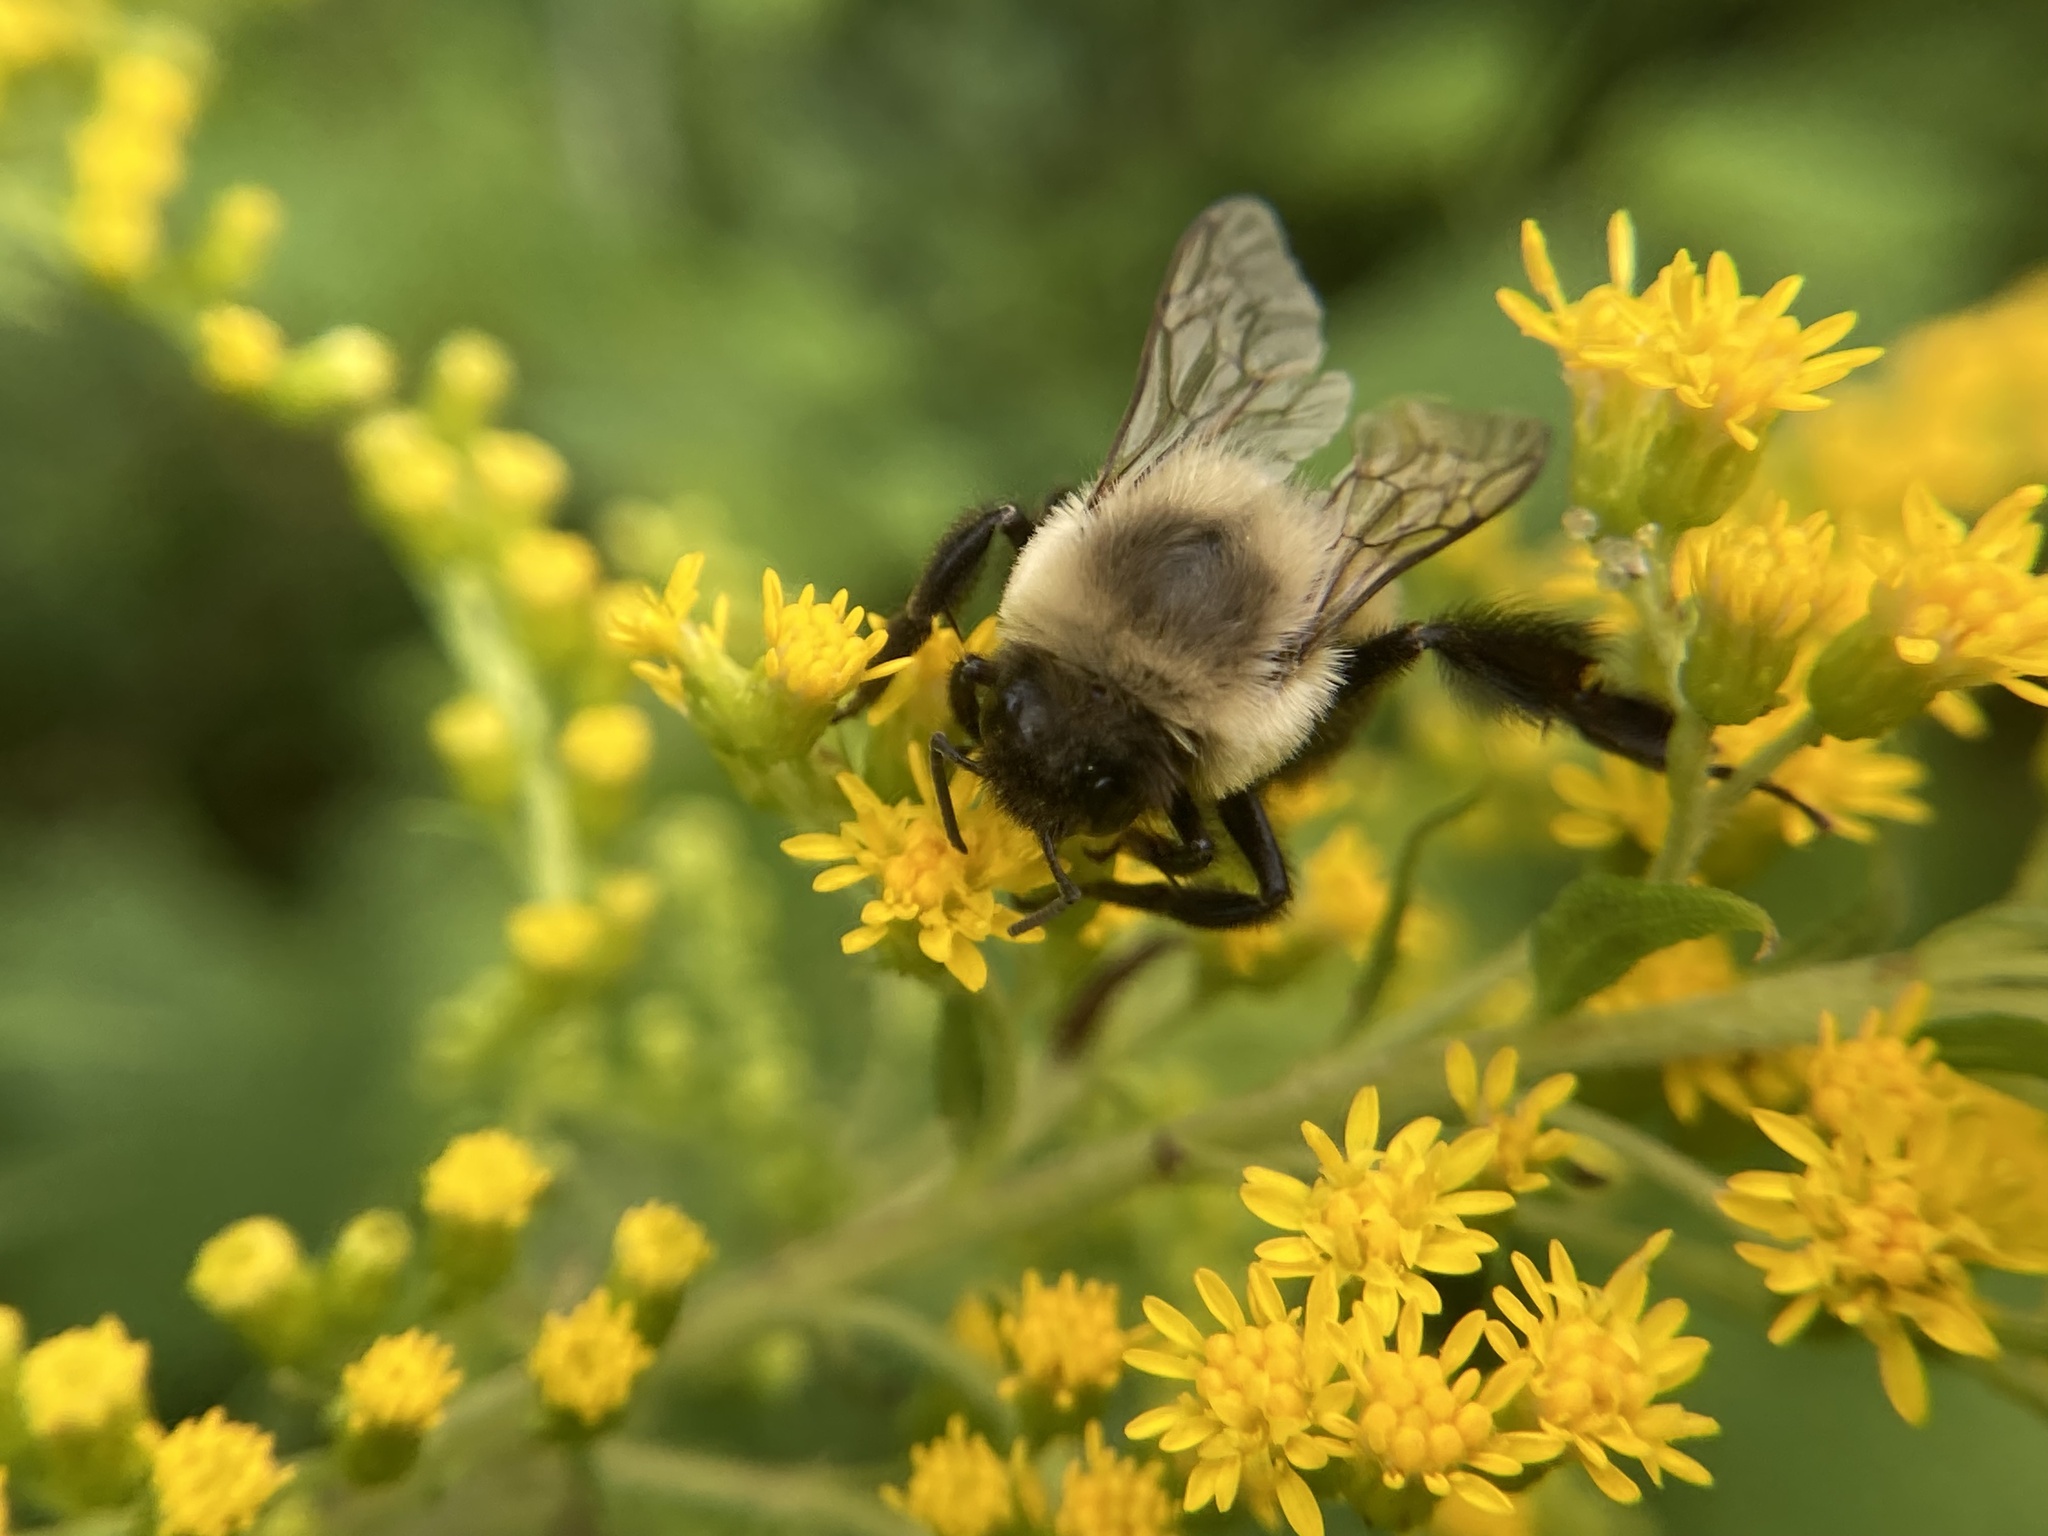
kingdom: Animalia
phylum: Arthropoda
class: Insecta
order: Hymenoptera
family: Apidae
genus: Bombus
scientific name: Bombus impatiens
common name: Common eastern bumble bee
